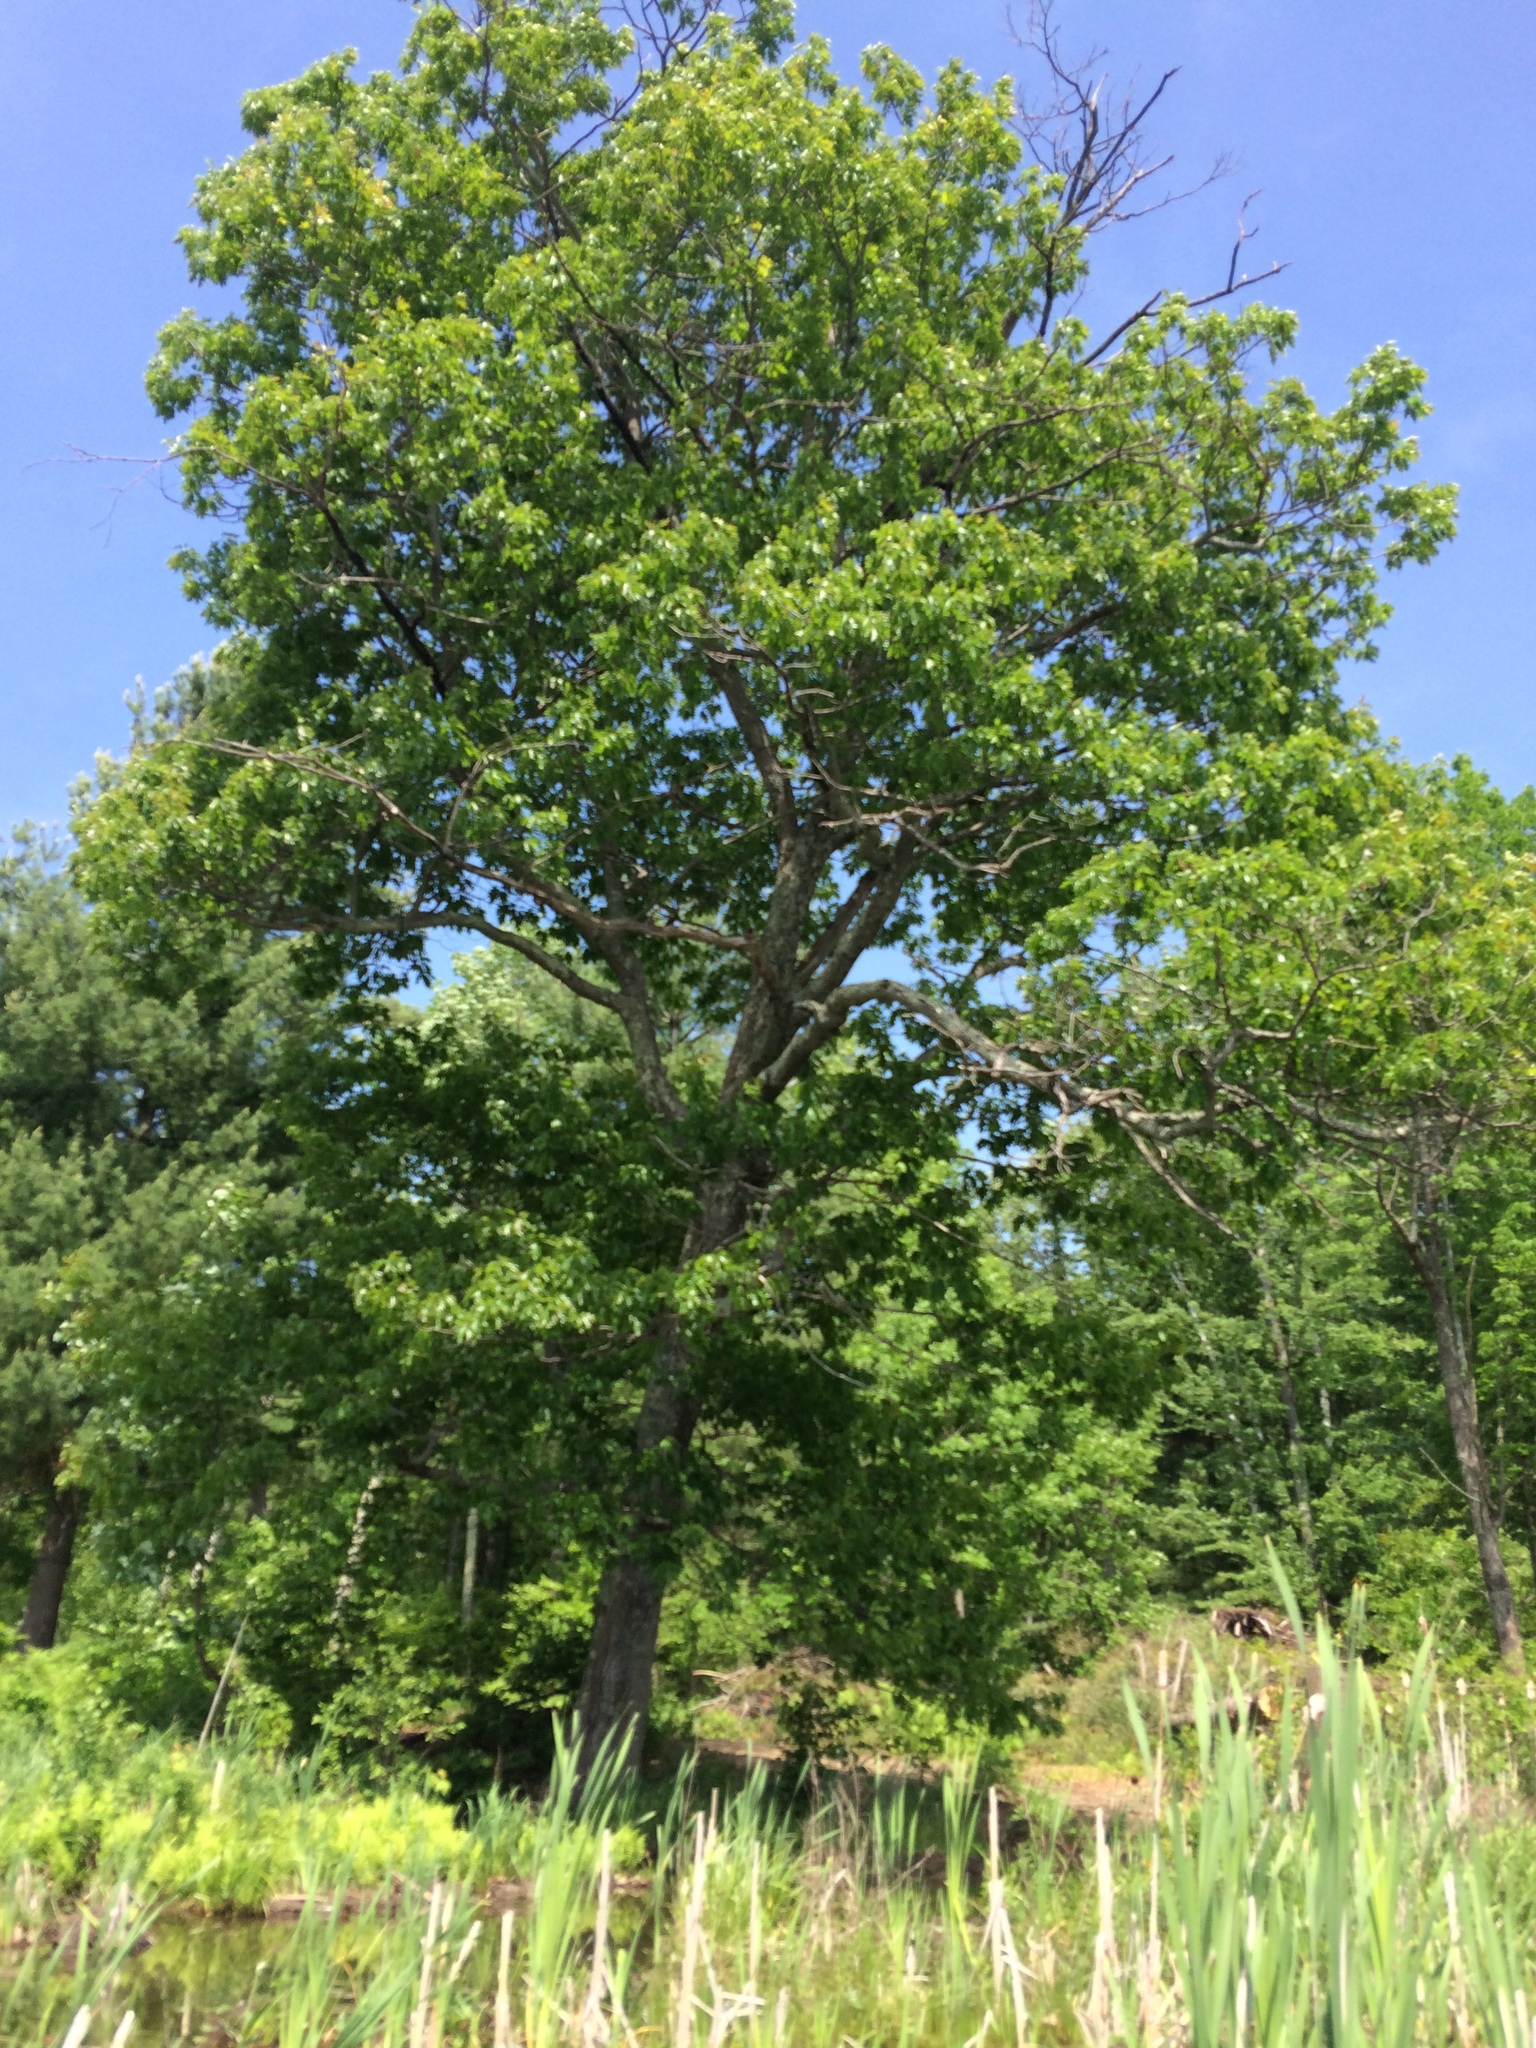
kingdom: Plantae
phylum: Tracheophyta
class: Magnoliopsida
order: Fagales
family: Fagaceae
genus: Quercus
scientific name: Quercus rubra
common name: Red oak
